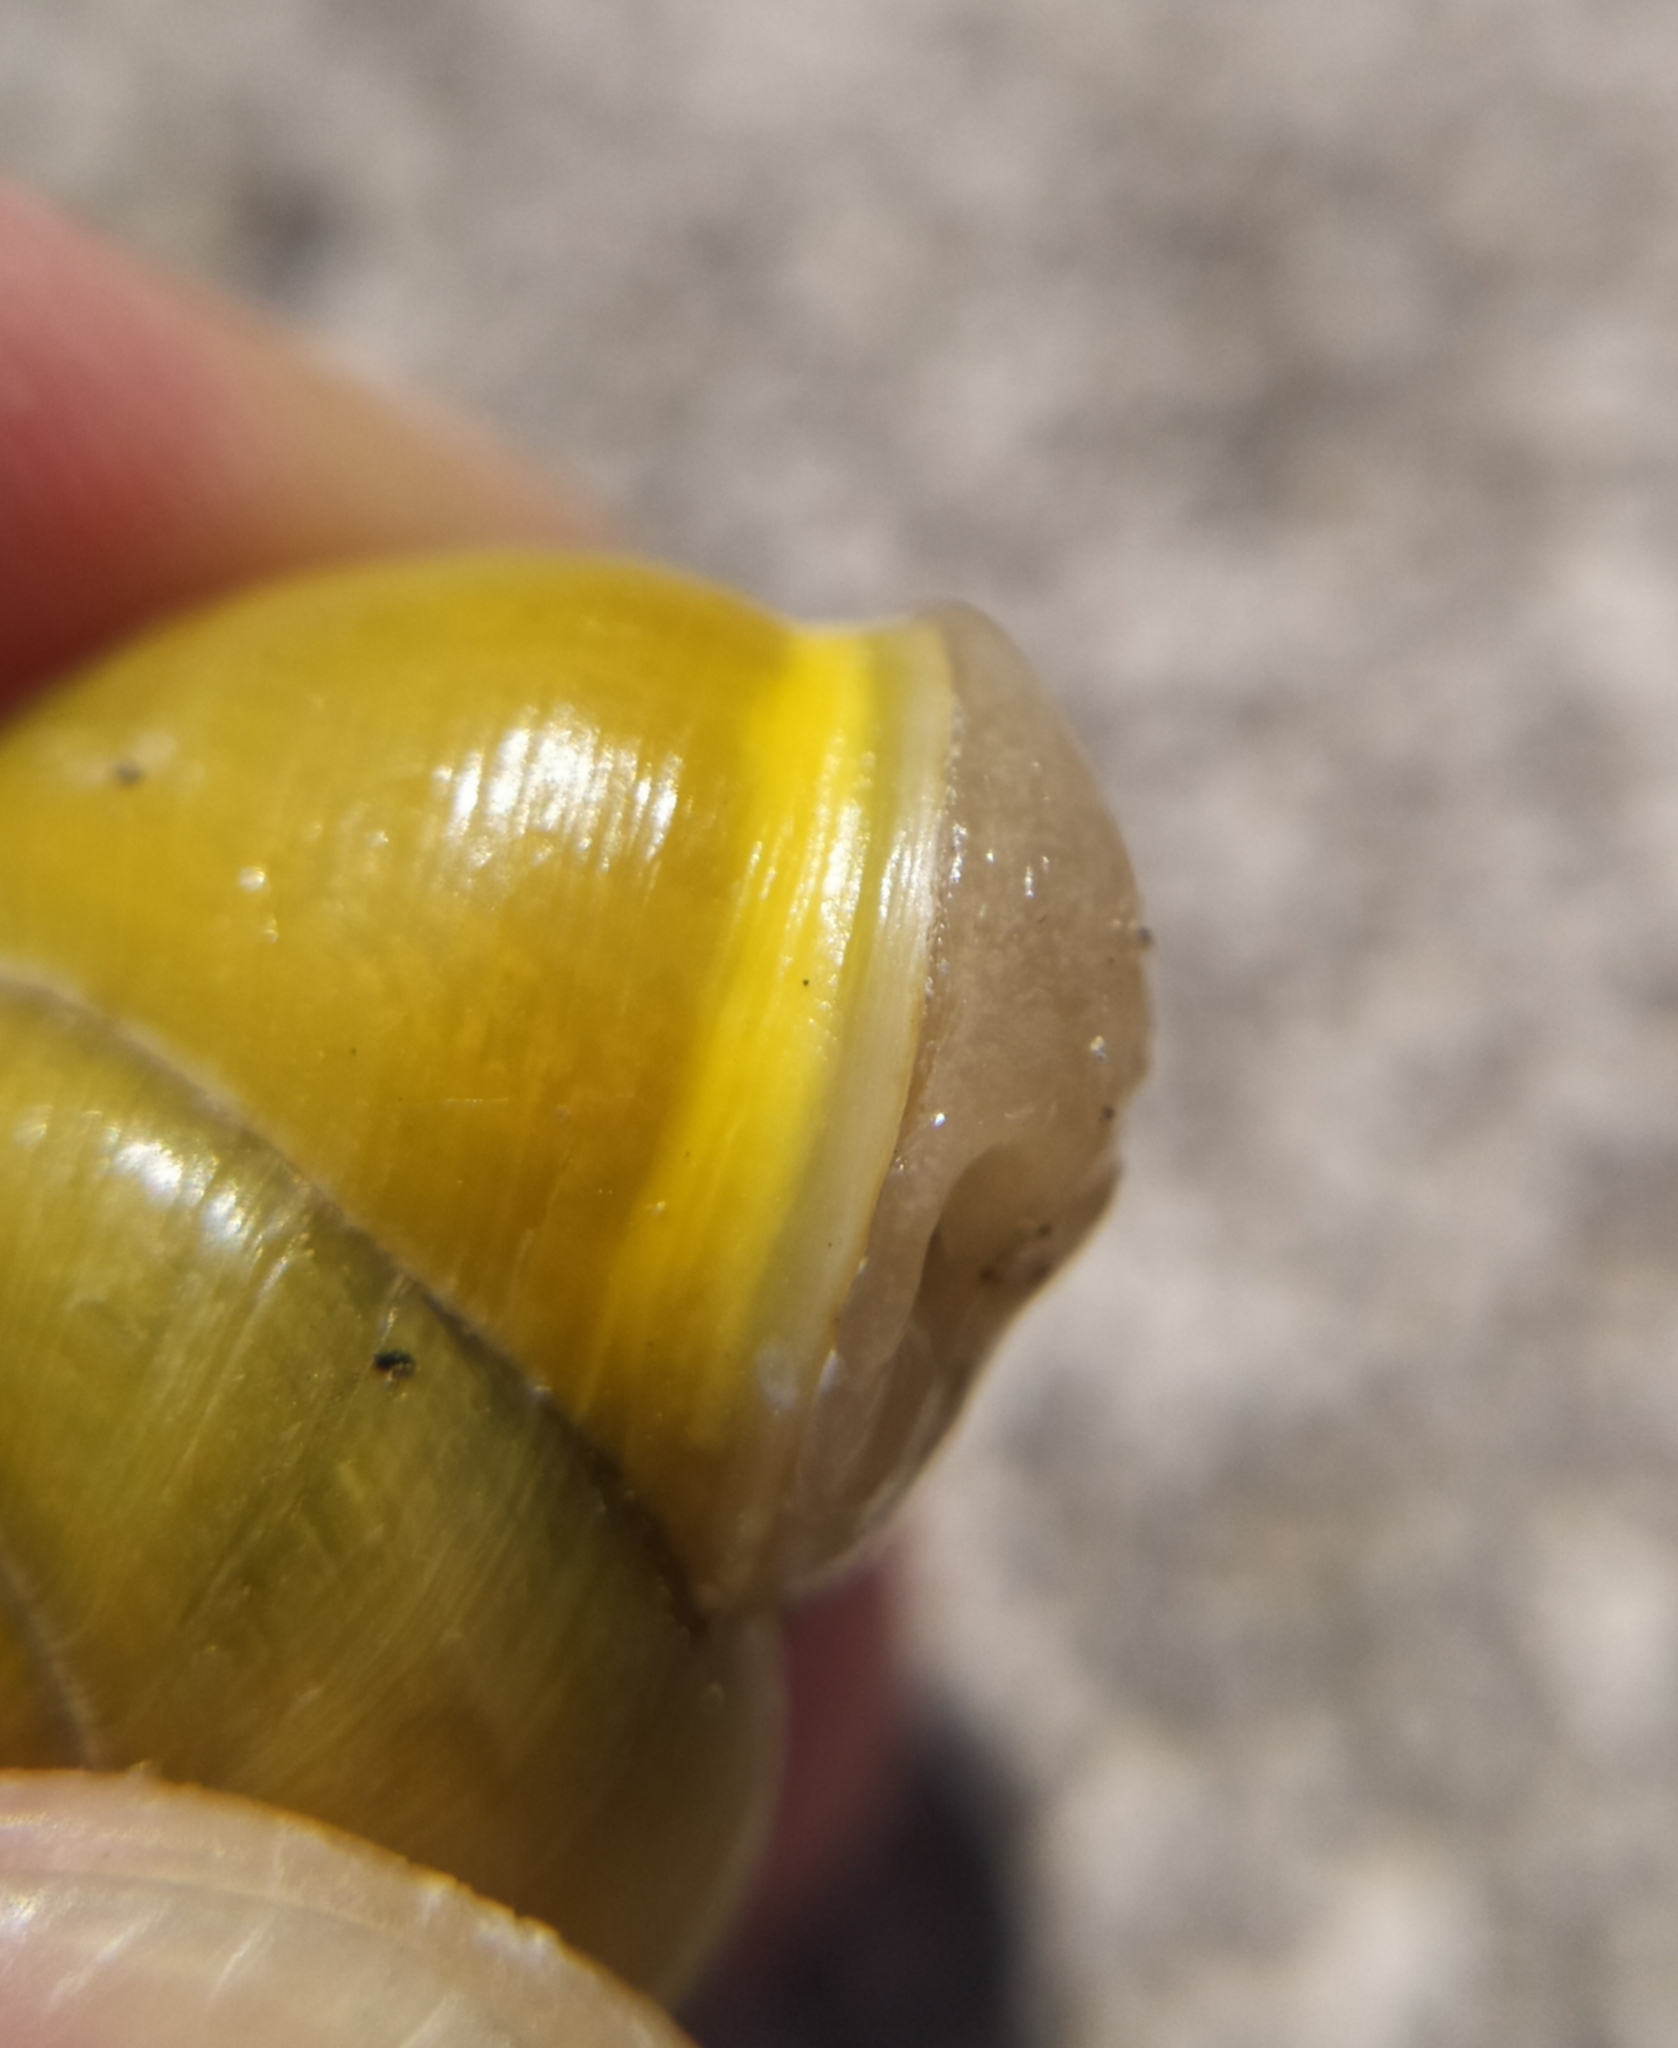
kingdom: Animalia
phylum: Mollusca
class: Gastropoda
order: Stylommatophora
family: Helicidae
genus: Cepaea
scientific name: Cepaea hortensis
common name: White-lip gardensnail
